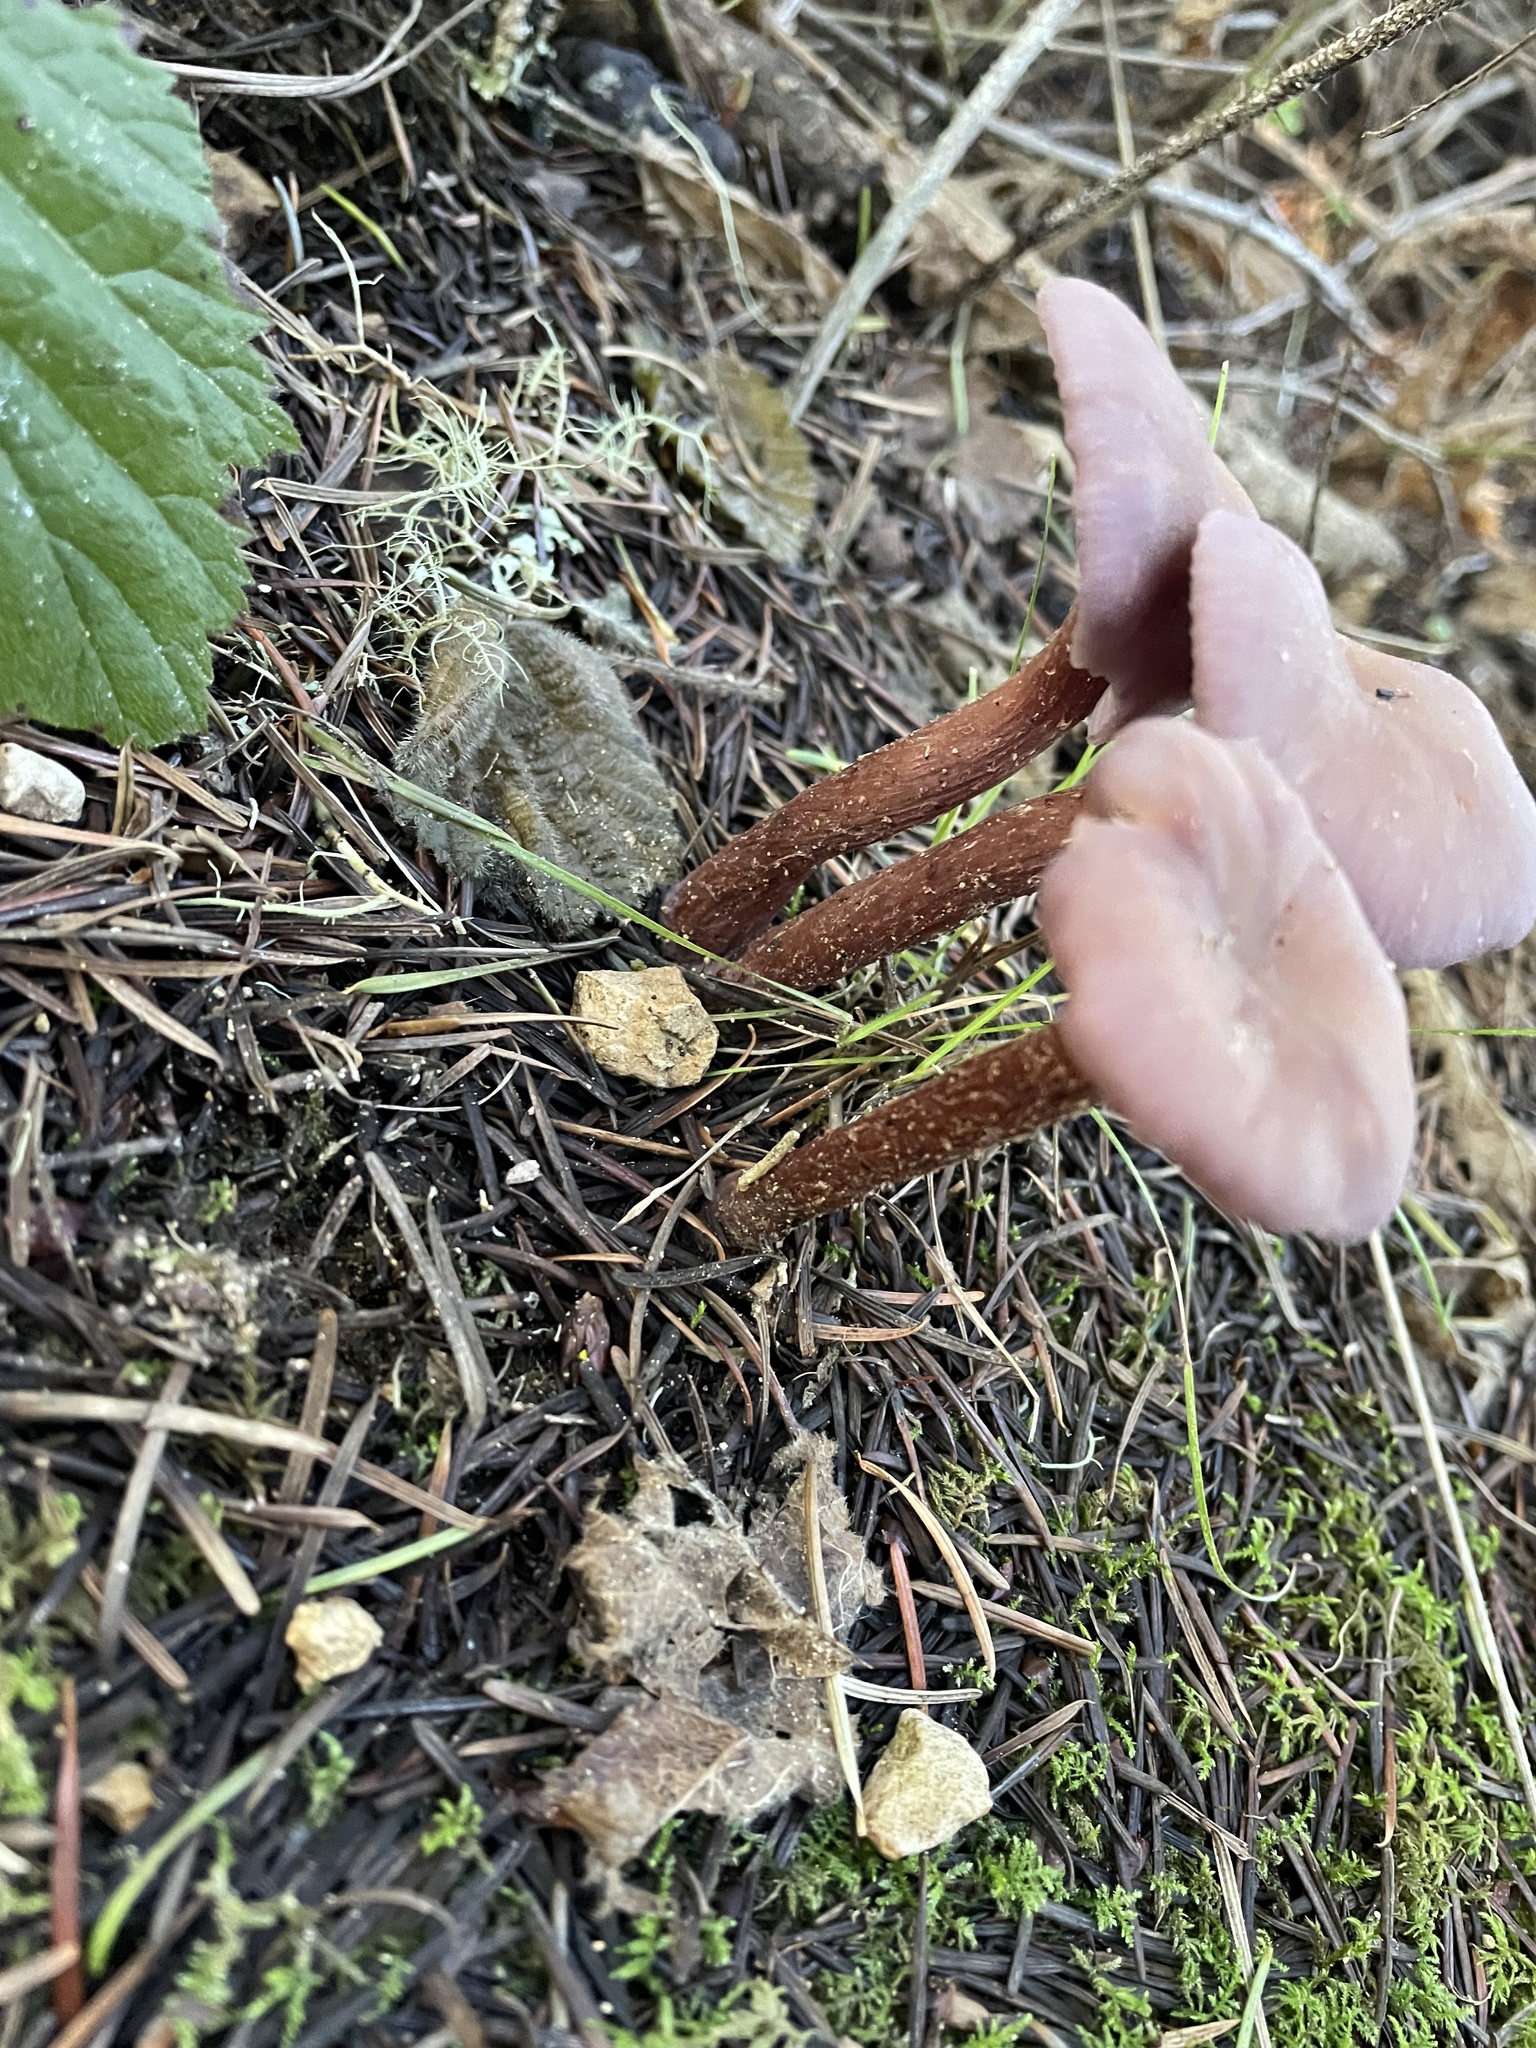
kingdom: Fungi
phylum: Basidiomycota
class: Agaricomycetes
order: Agaricales
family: Hydnangiaceae
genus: Laccaria
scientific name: Laccaria amethysteo-occidentalis
